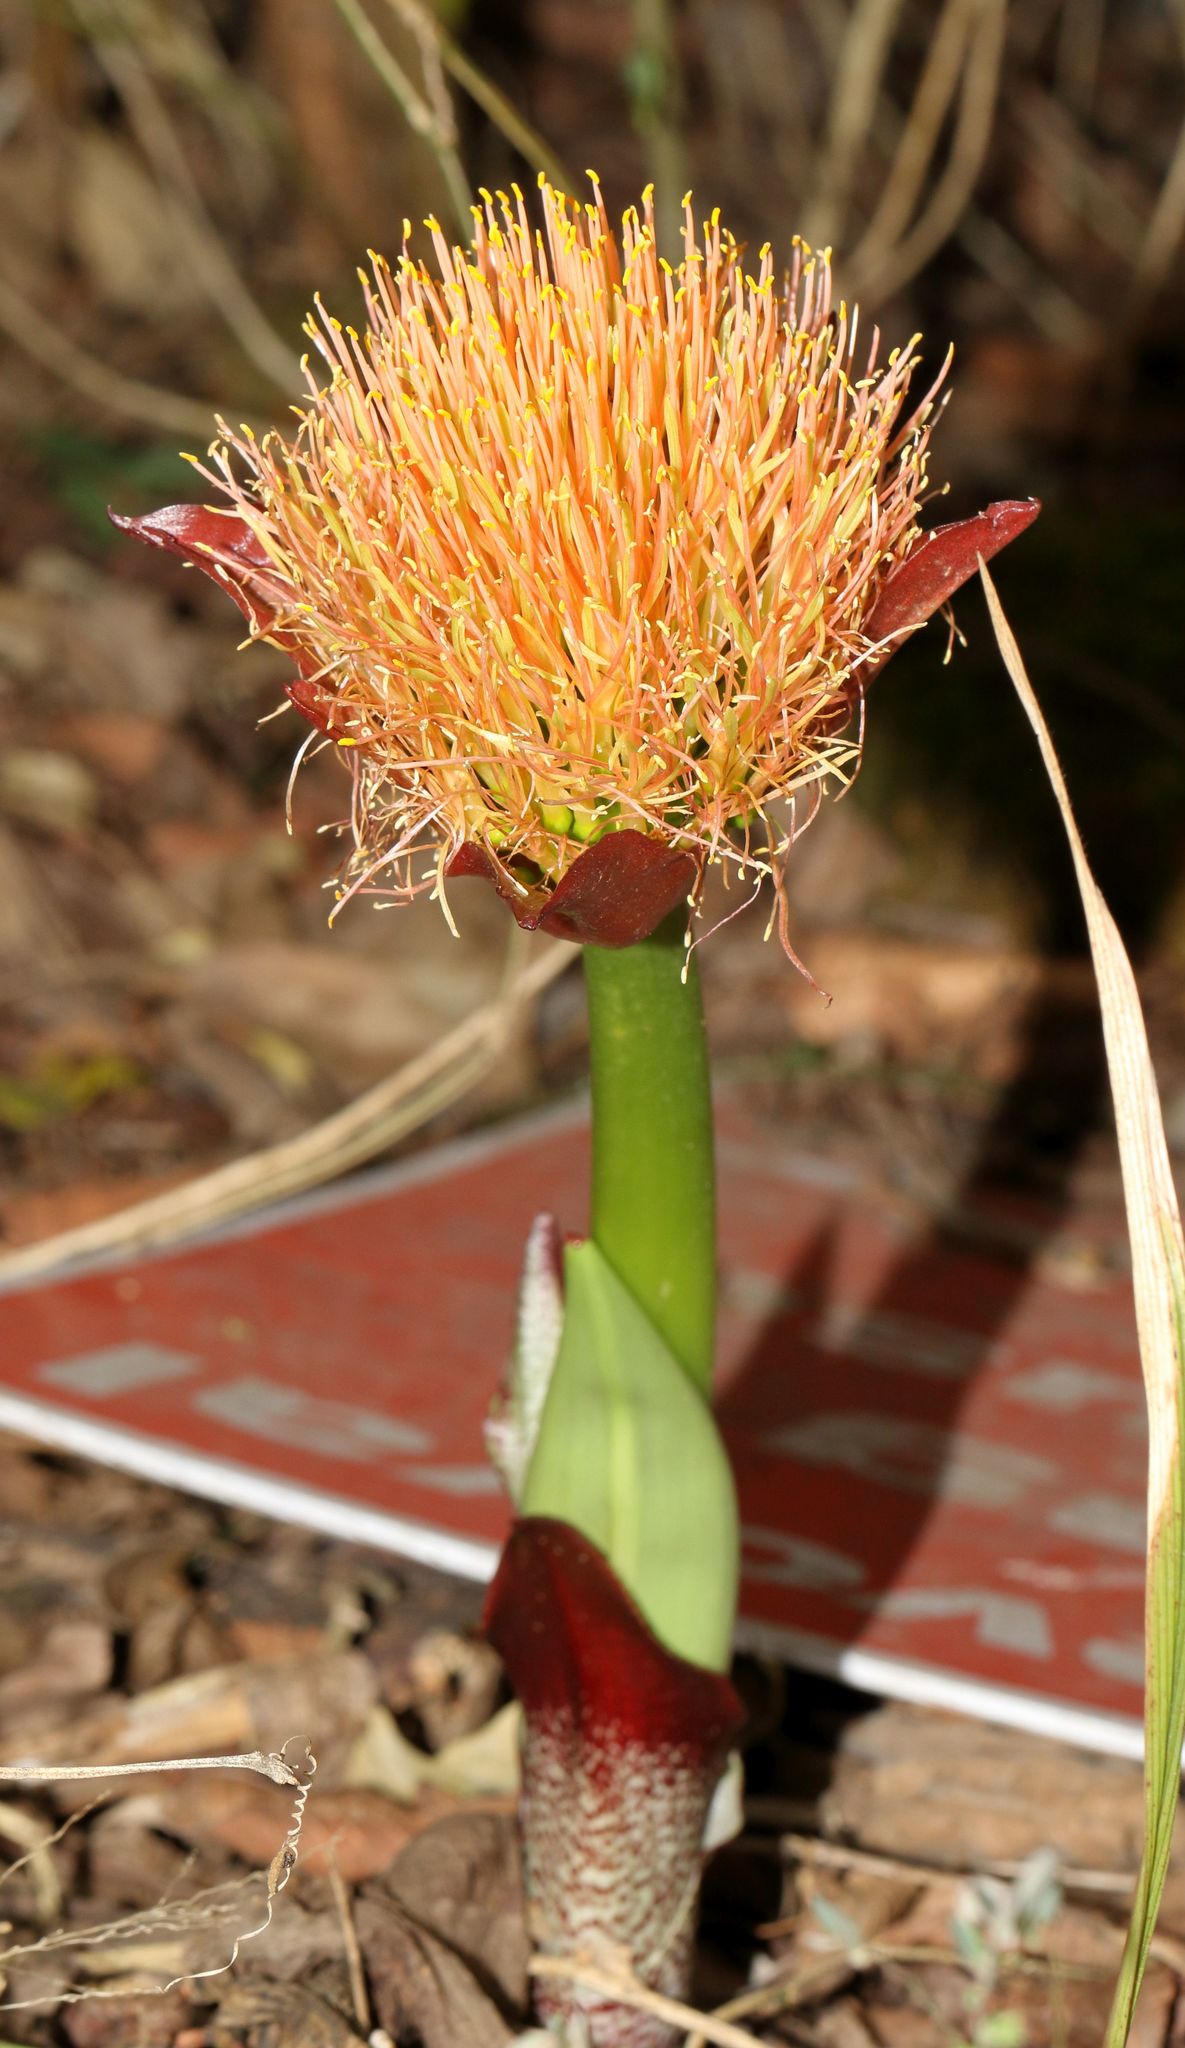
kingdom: Plantae
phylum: Tracheophyta
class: Liliopsida
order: Asparagales
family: Amaryllidaceae
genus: Scadoxus
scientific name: Scadoxus puniceus
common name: Royal-paintbrush
